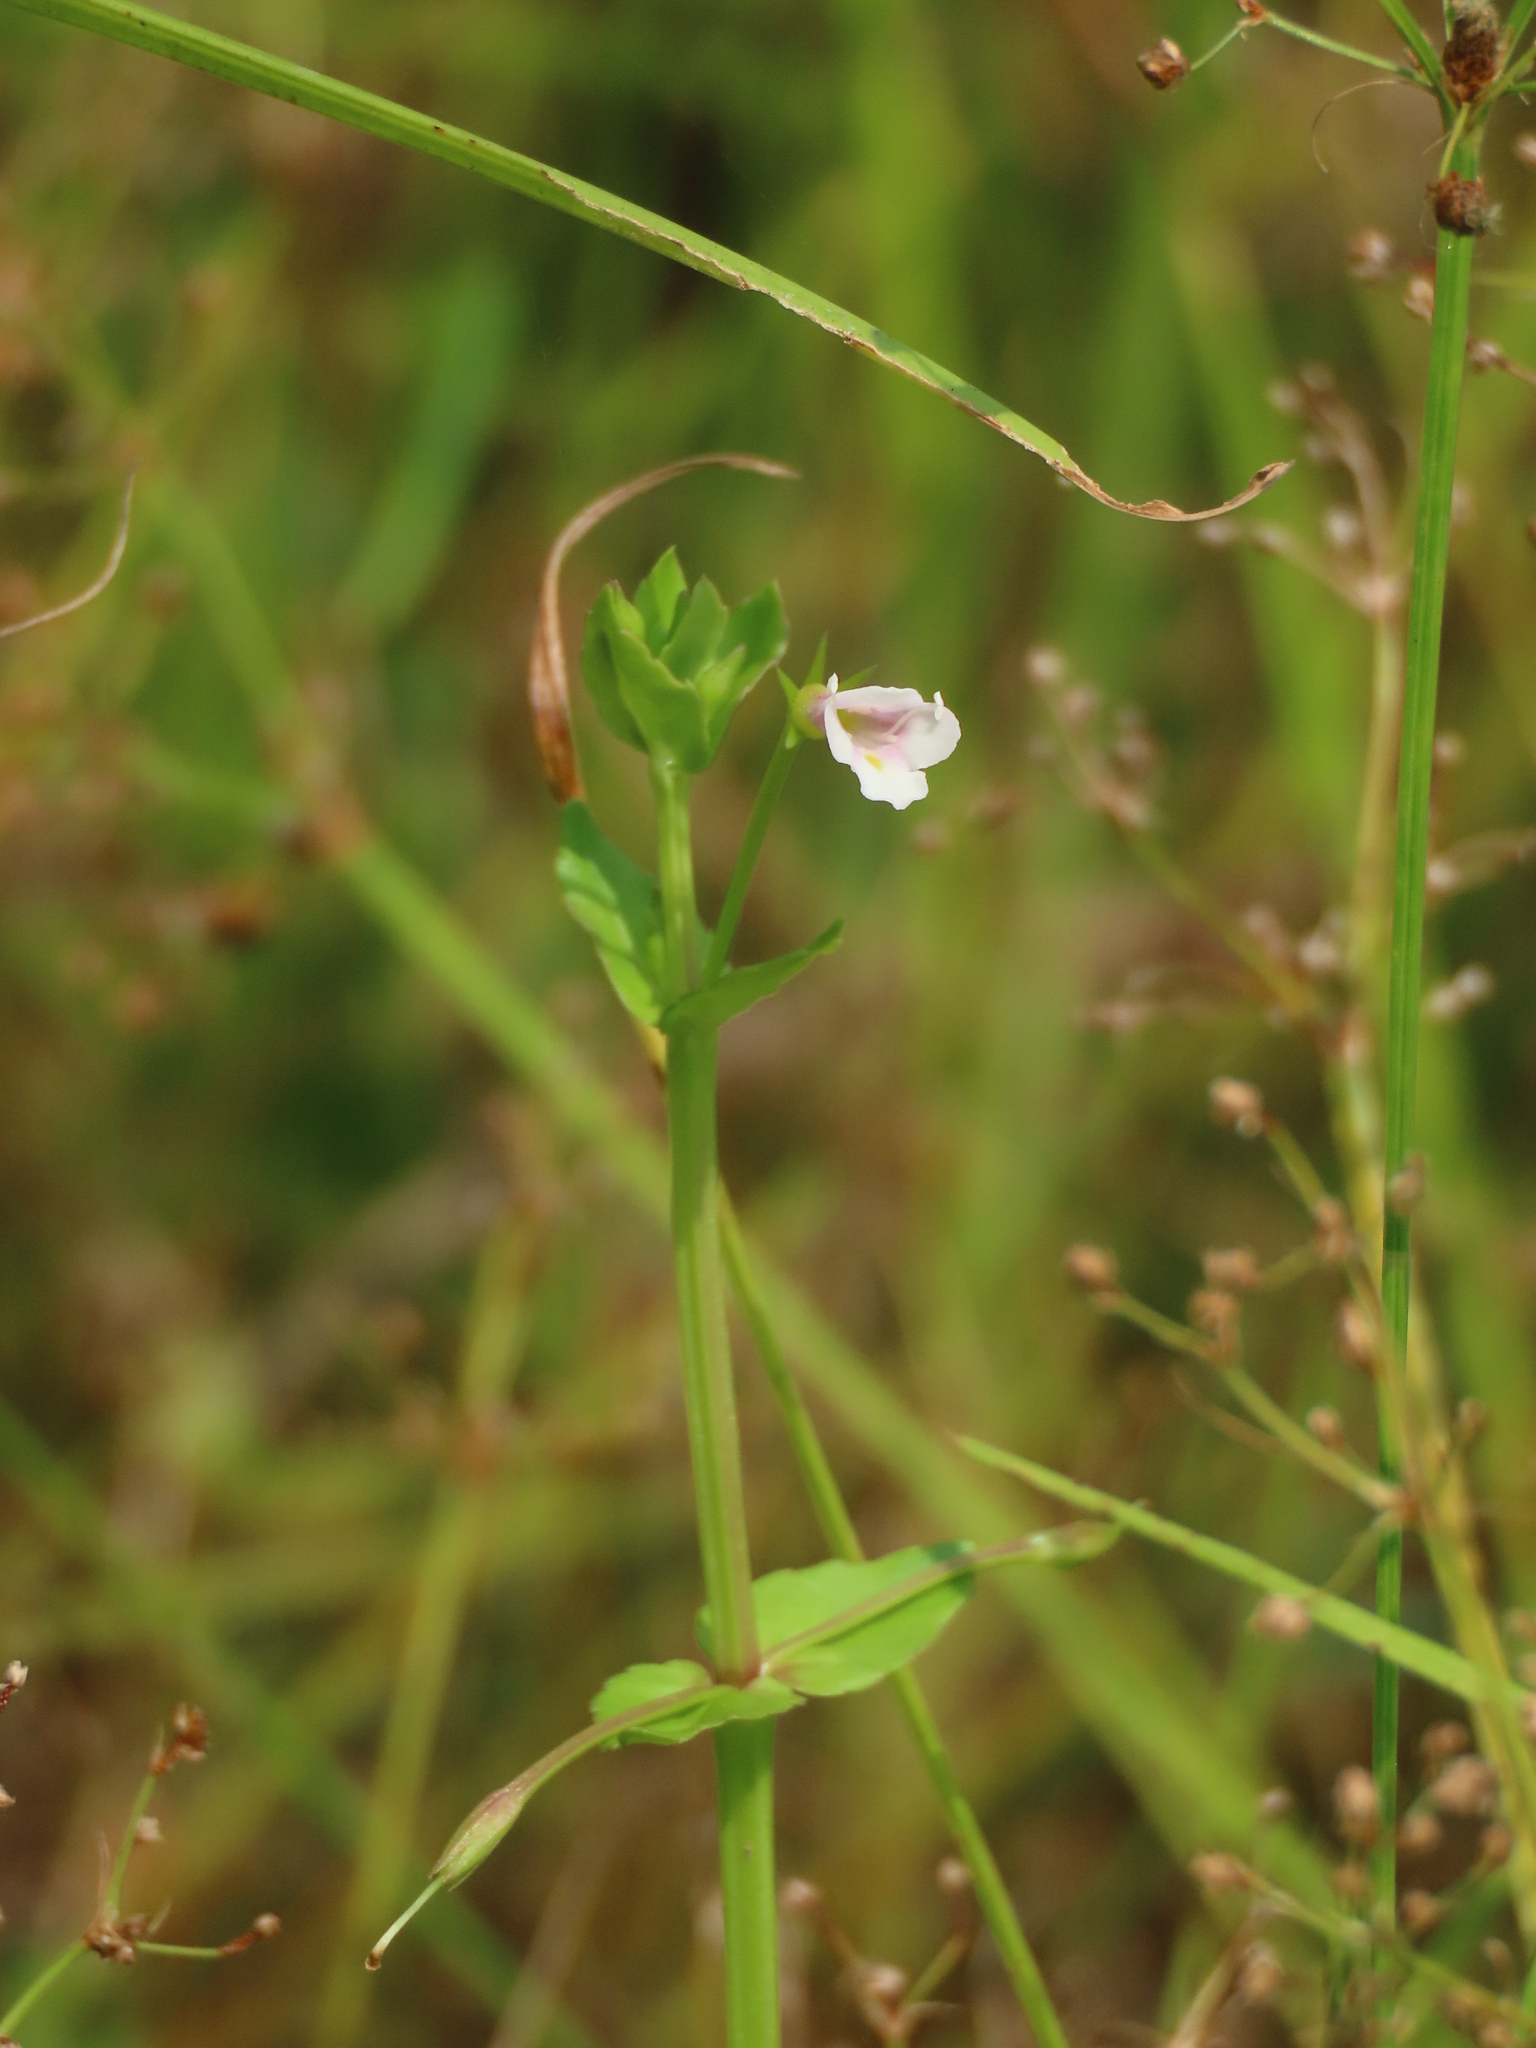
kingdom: Plantae
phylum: Tracheophyta
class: Magnoliopsida
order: Lamiales
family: Linderniaceae
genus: Torenia
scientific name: Torenia anagallis
